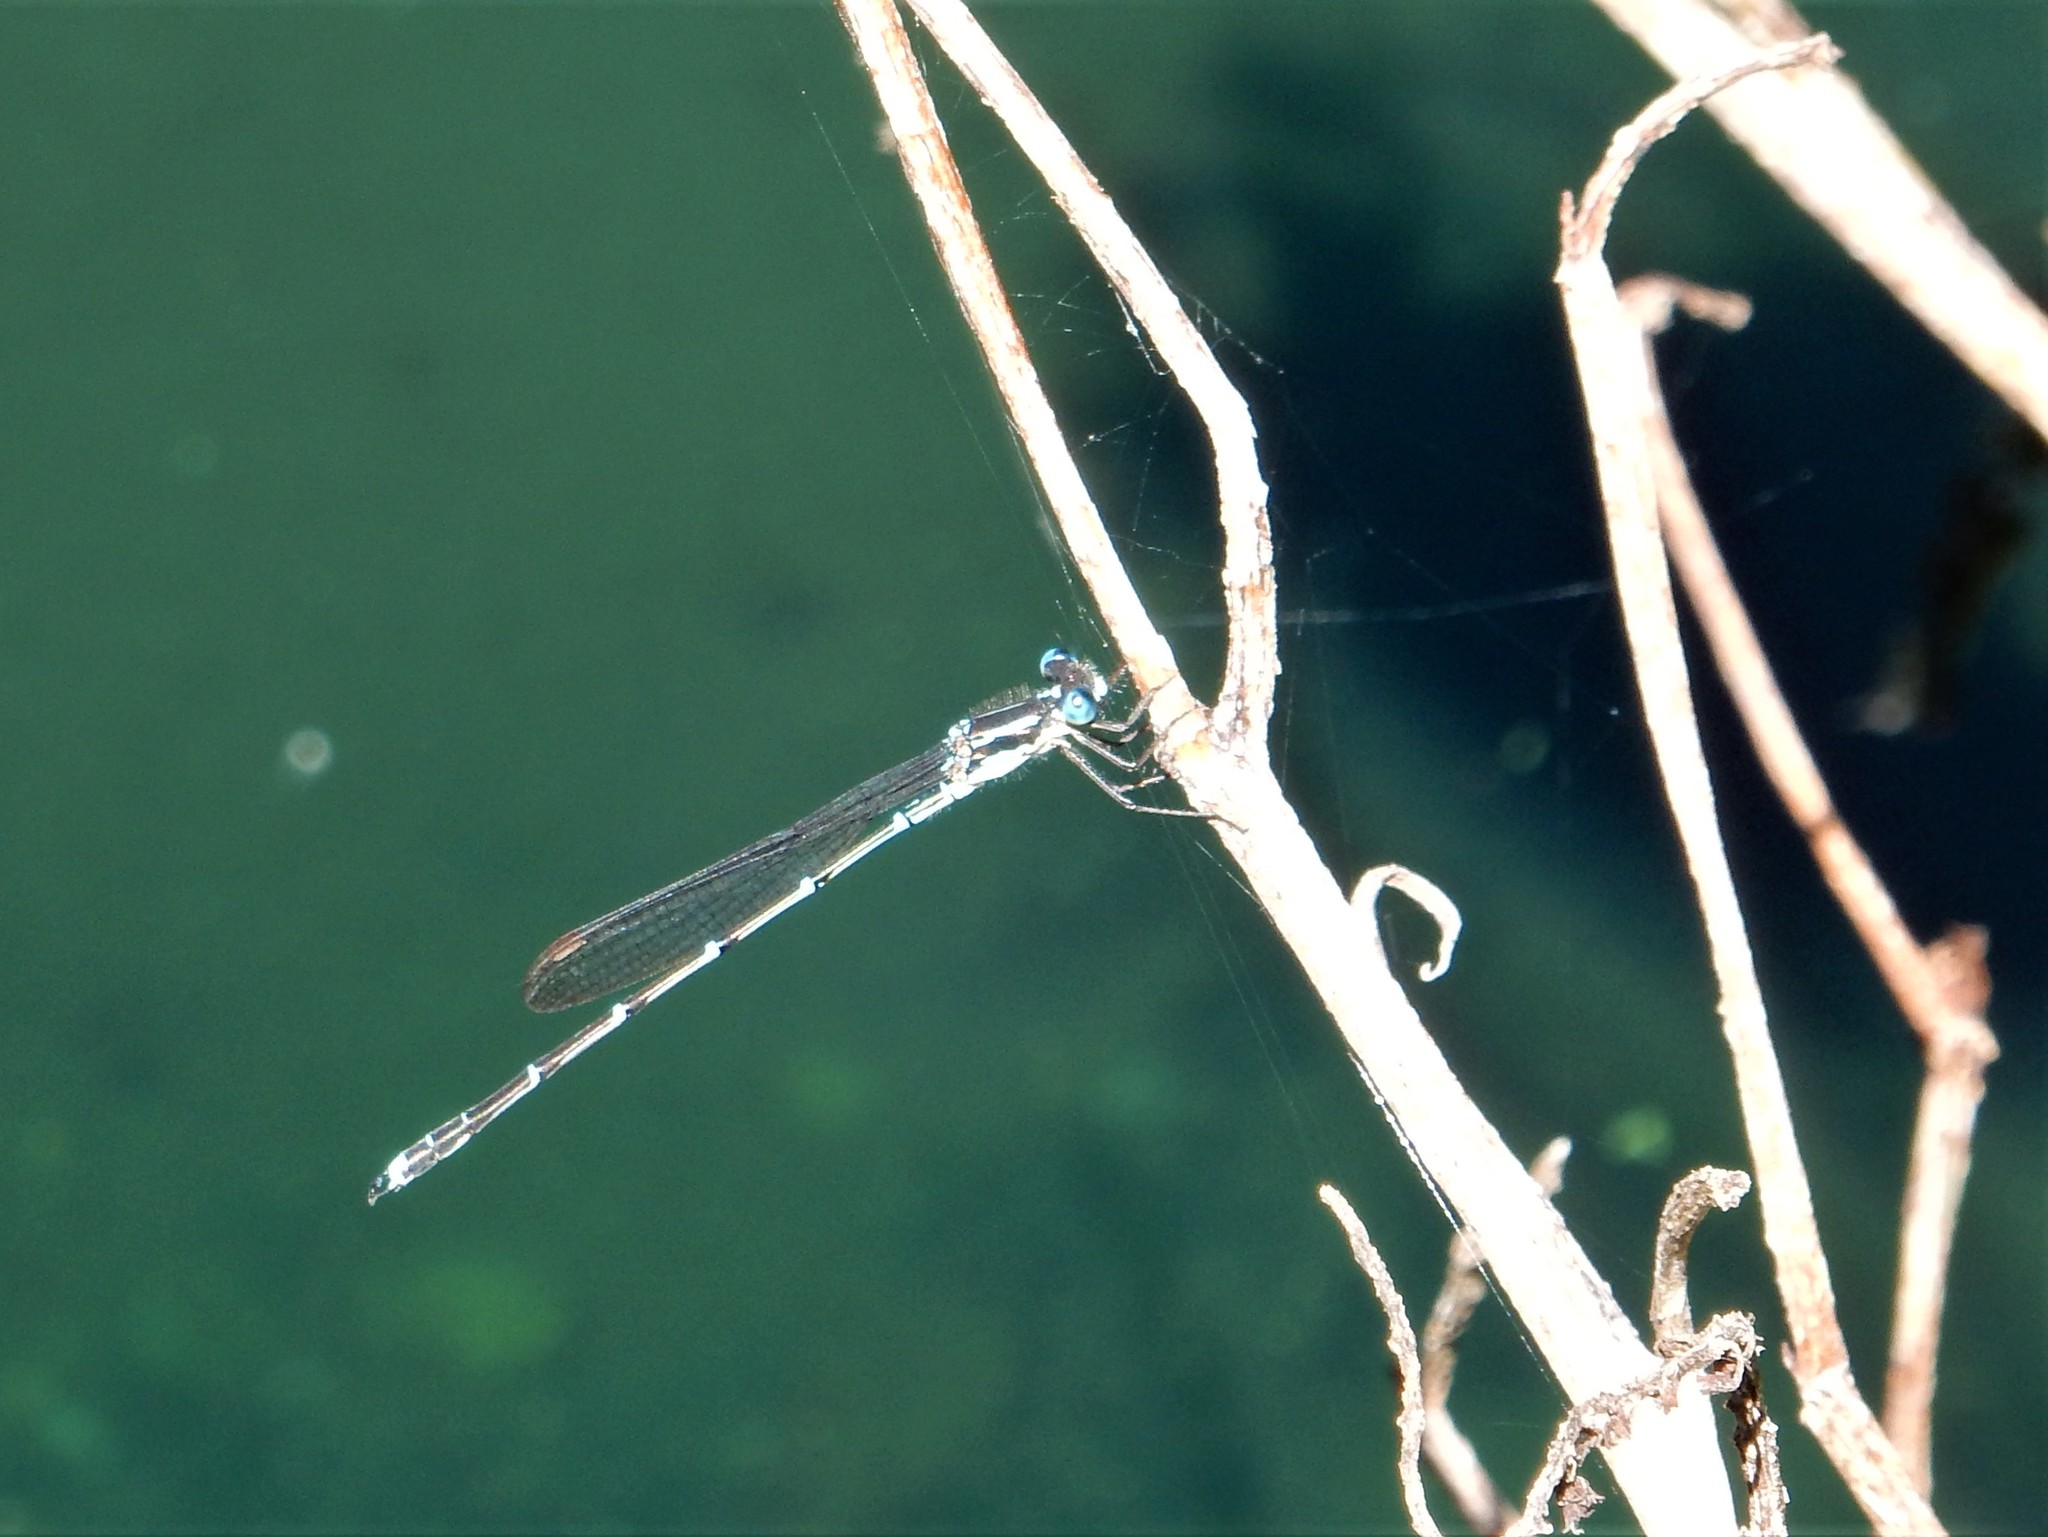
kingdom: Animalia
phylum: Arthropoda
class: Insecta
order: Odonata
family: Lestidae
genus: Austrolestes
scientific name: Austrolestes colensonis
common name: Blue damselfly
